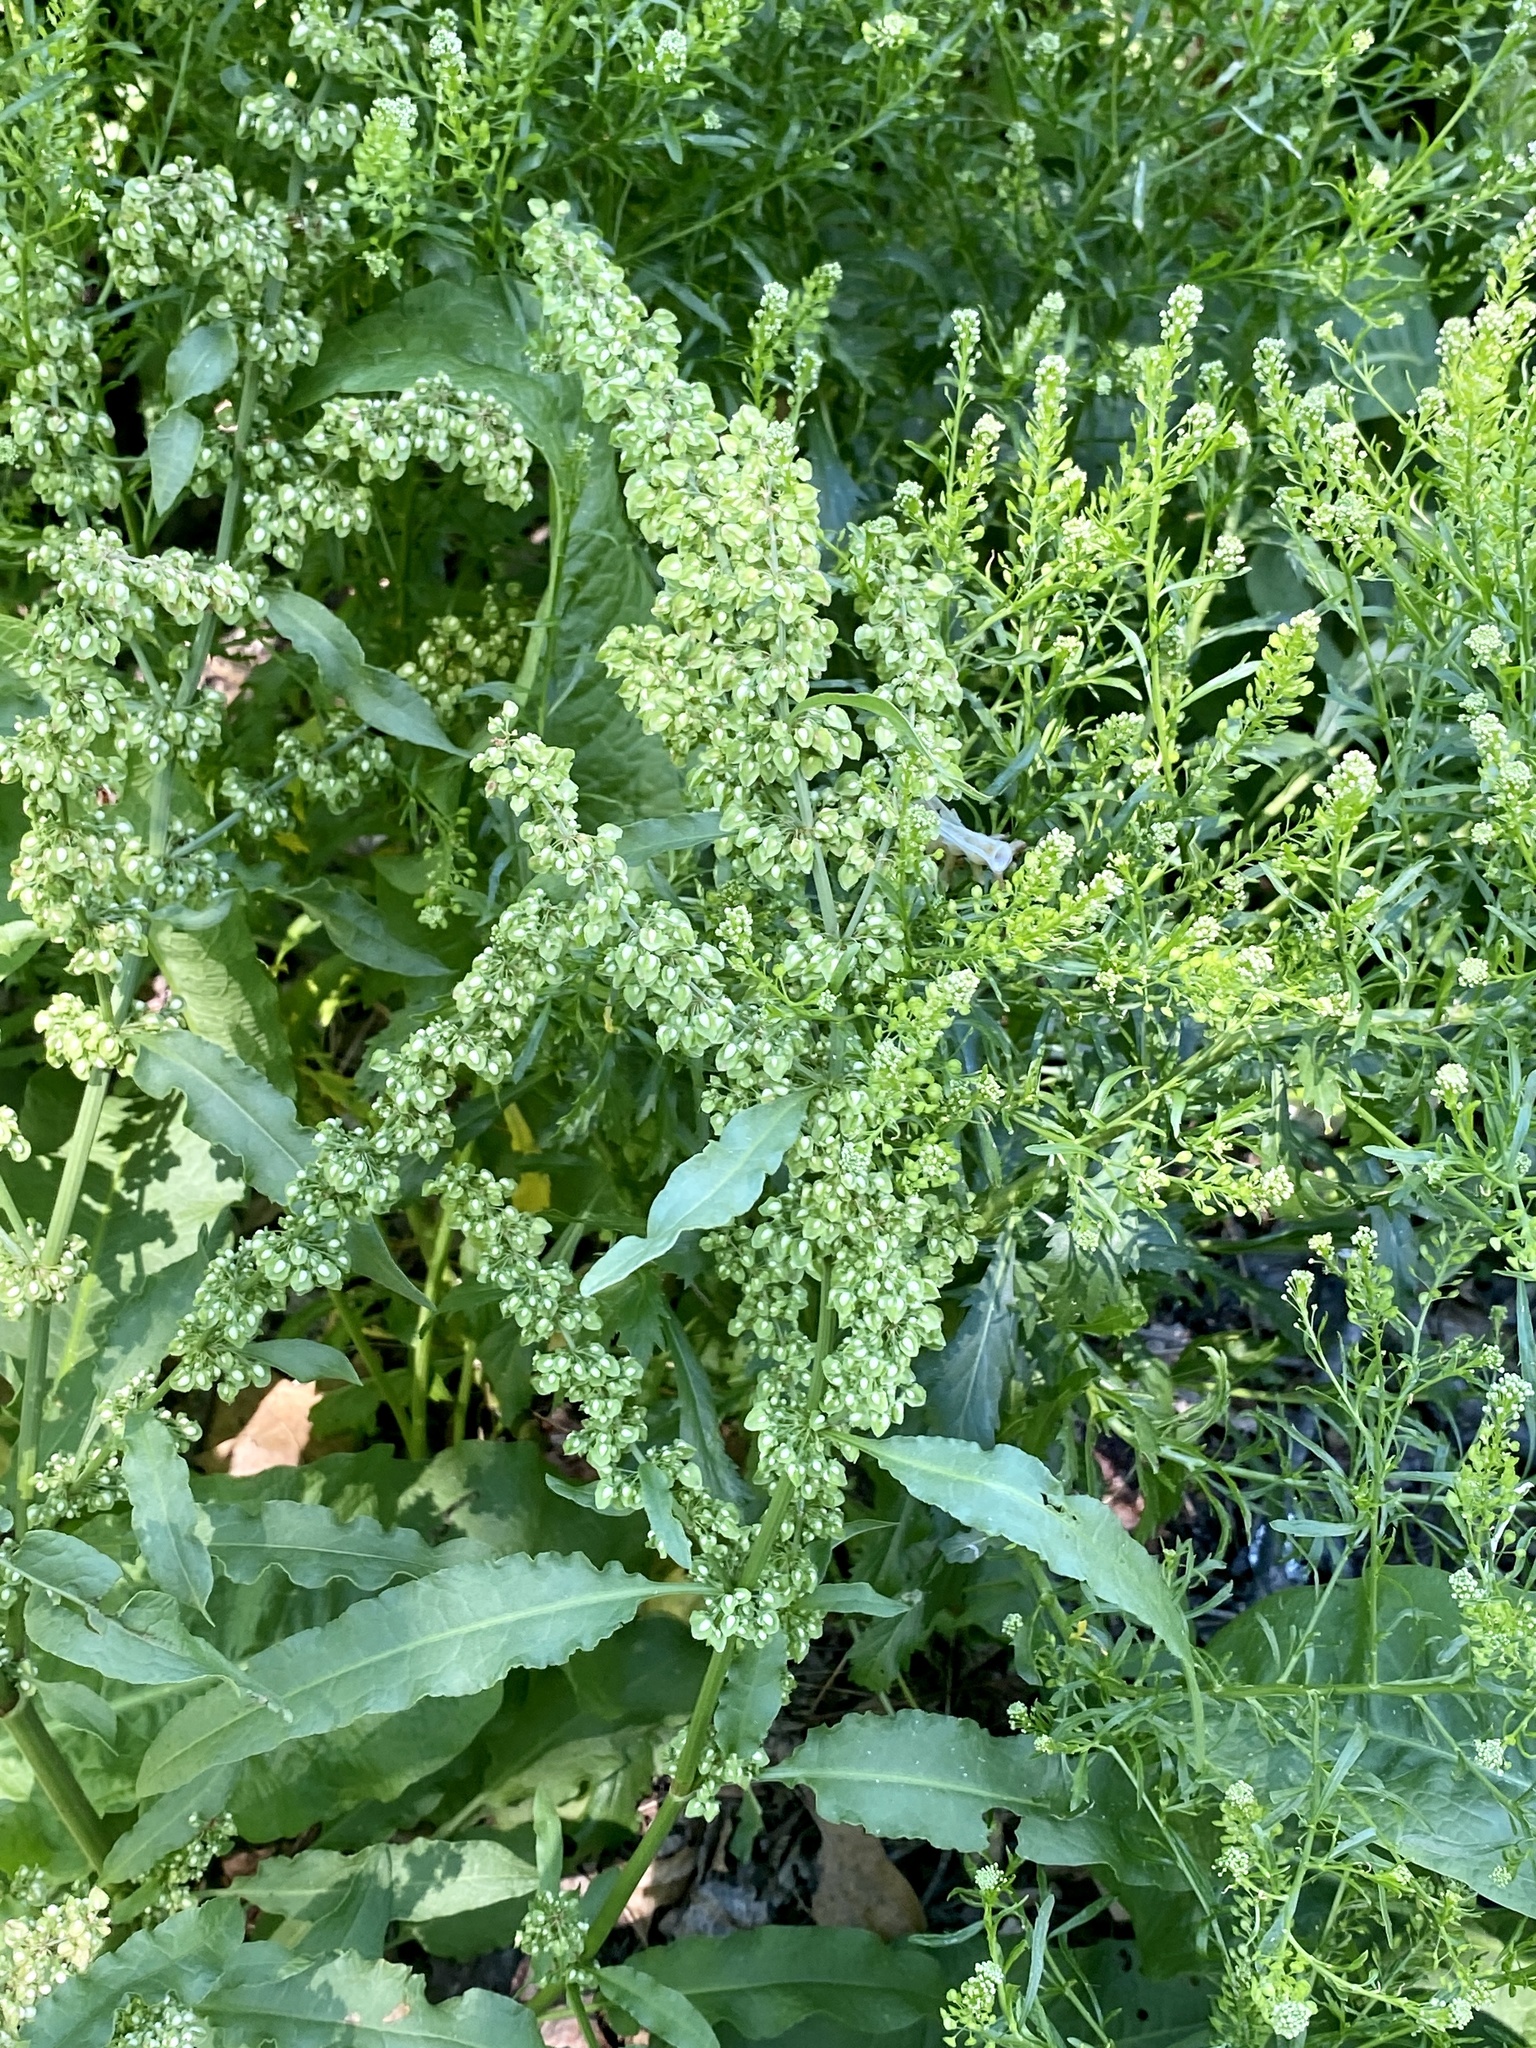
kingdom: Plantae
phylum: Tracheophyta
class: Magnoliopsida
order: Caryophyllales
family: Polygonaceae
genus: Rumex
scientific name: Rumex crispus
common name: Curled dock
